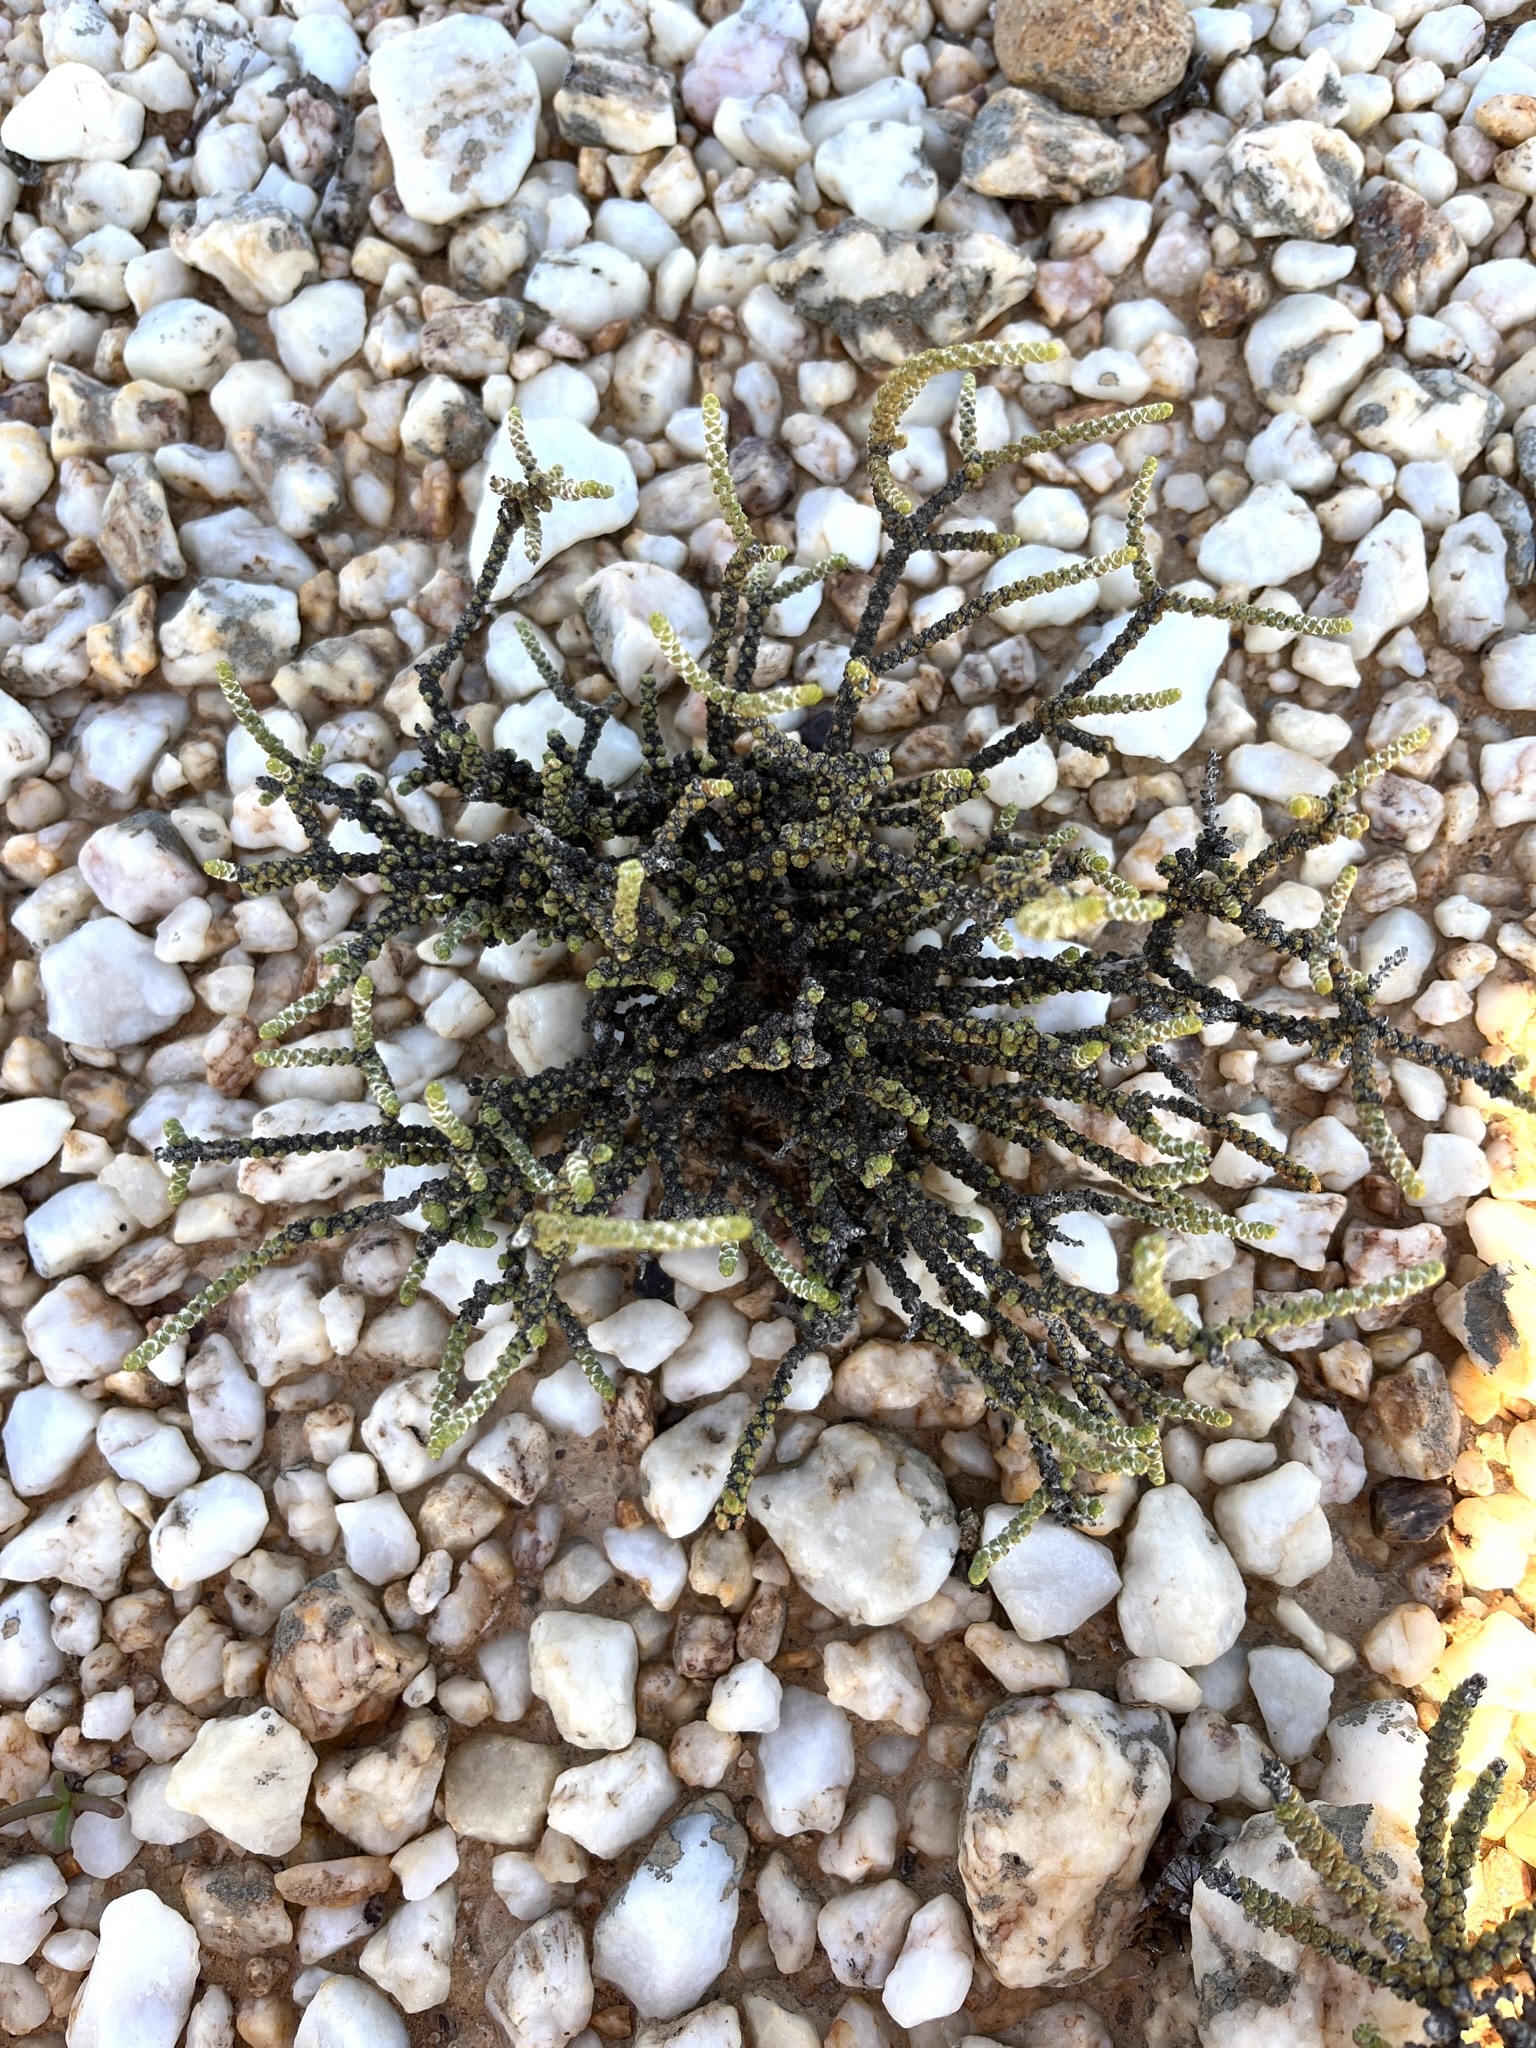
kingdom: Plantae
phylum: Tracheophyta
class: Magnoliopsida
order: Saxifragales
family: Crassulaceae
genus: Crassula
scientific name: Crassula muscosa
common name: Toy-cypress
